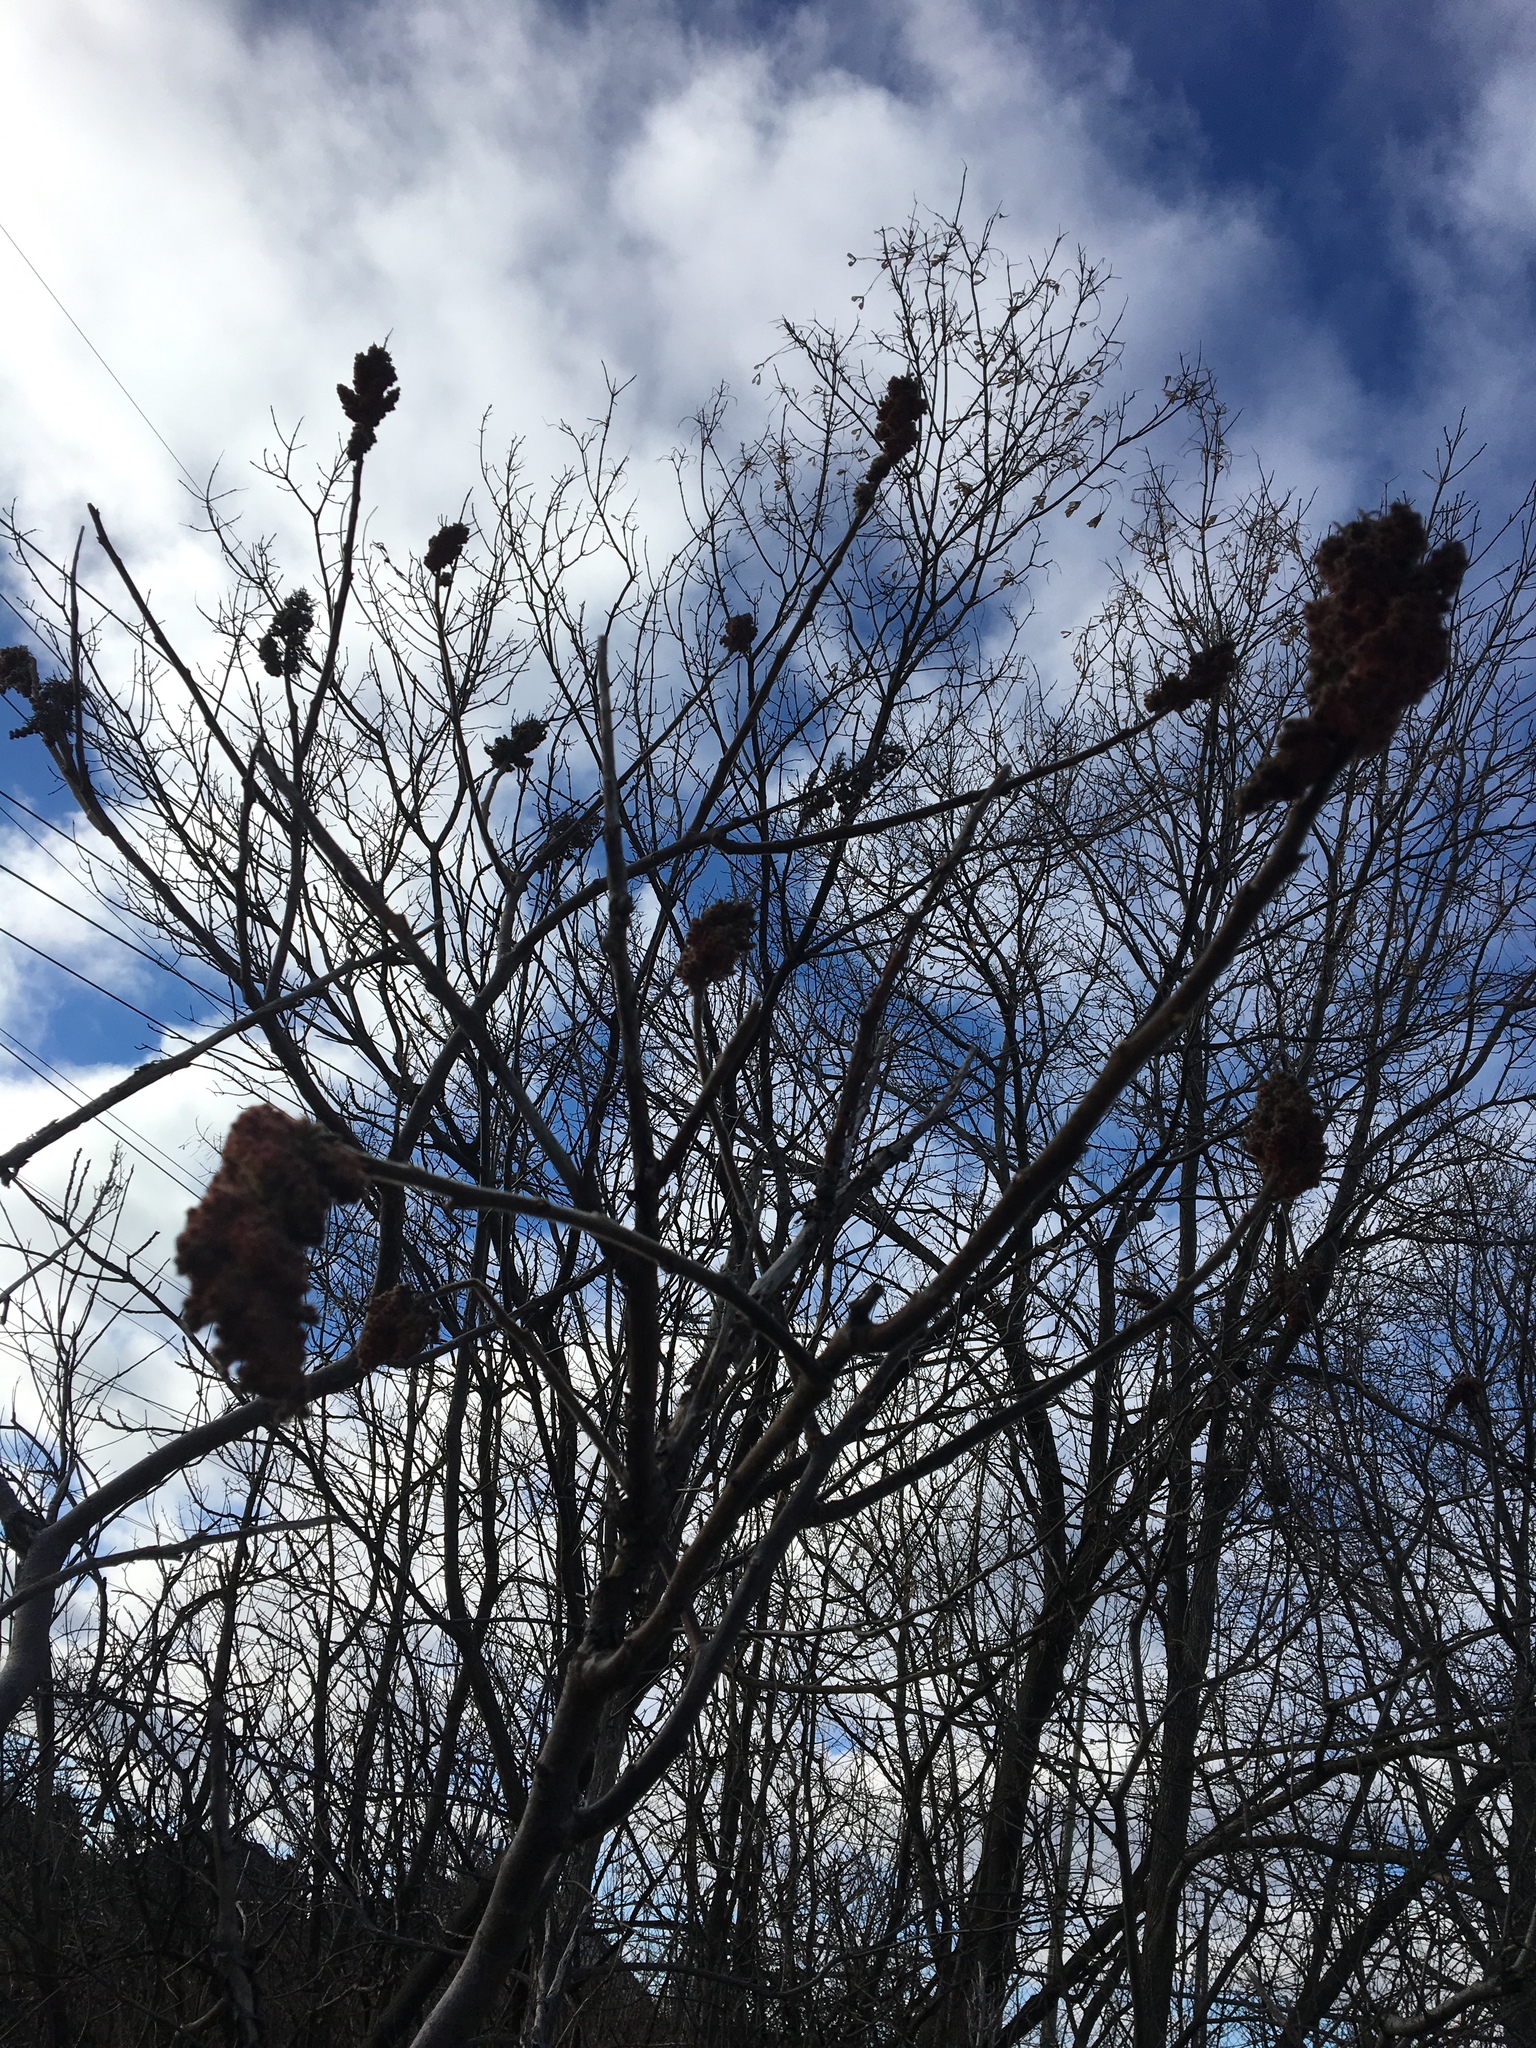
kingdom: Plantae
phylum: Tracheophyta
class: Magnoliopsida
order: Sapindales
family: Anacardiaceae
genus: Rhus
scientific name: Rhus typhina
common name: Staghorn sumac
